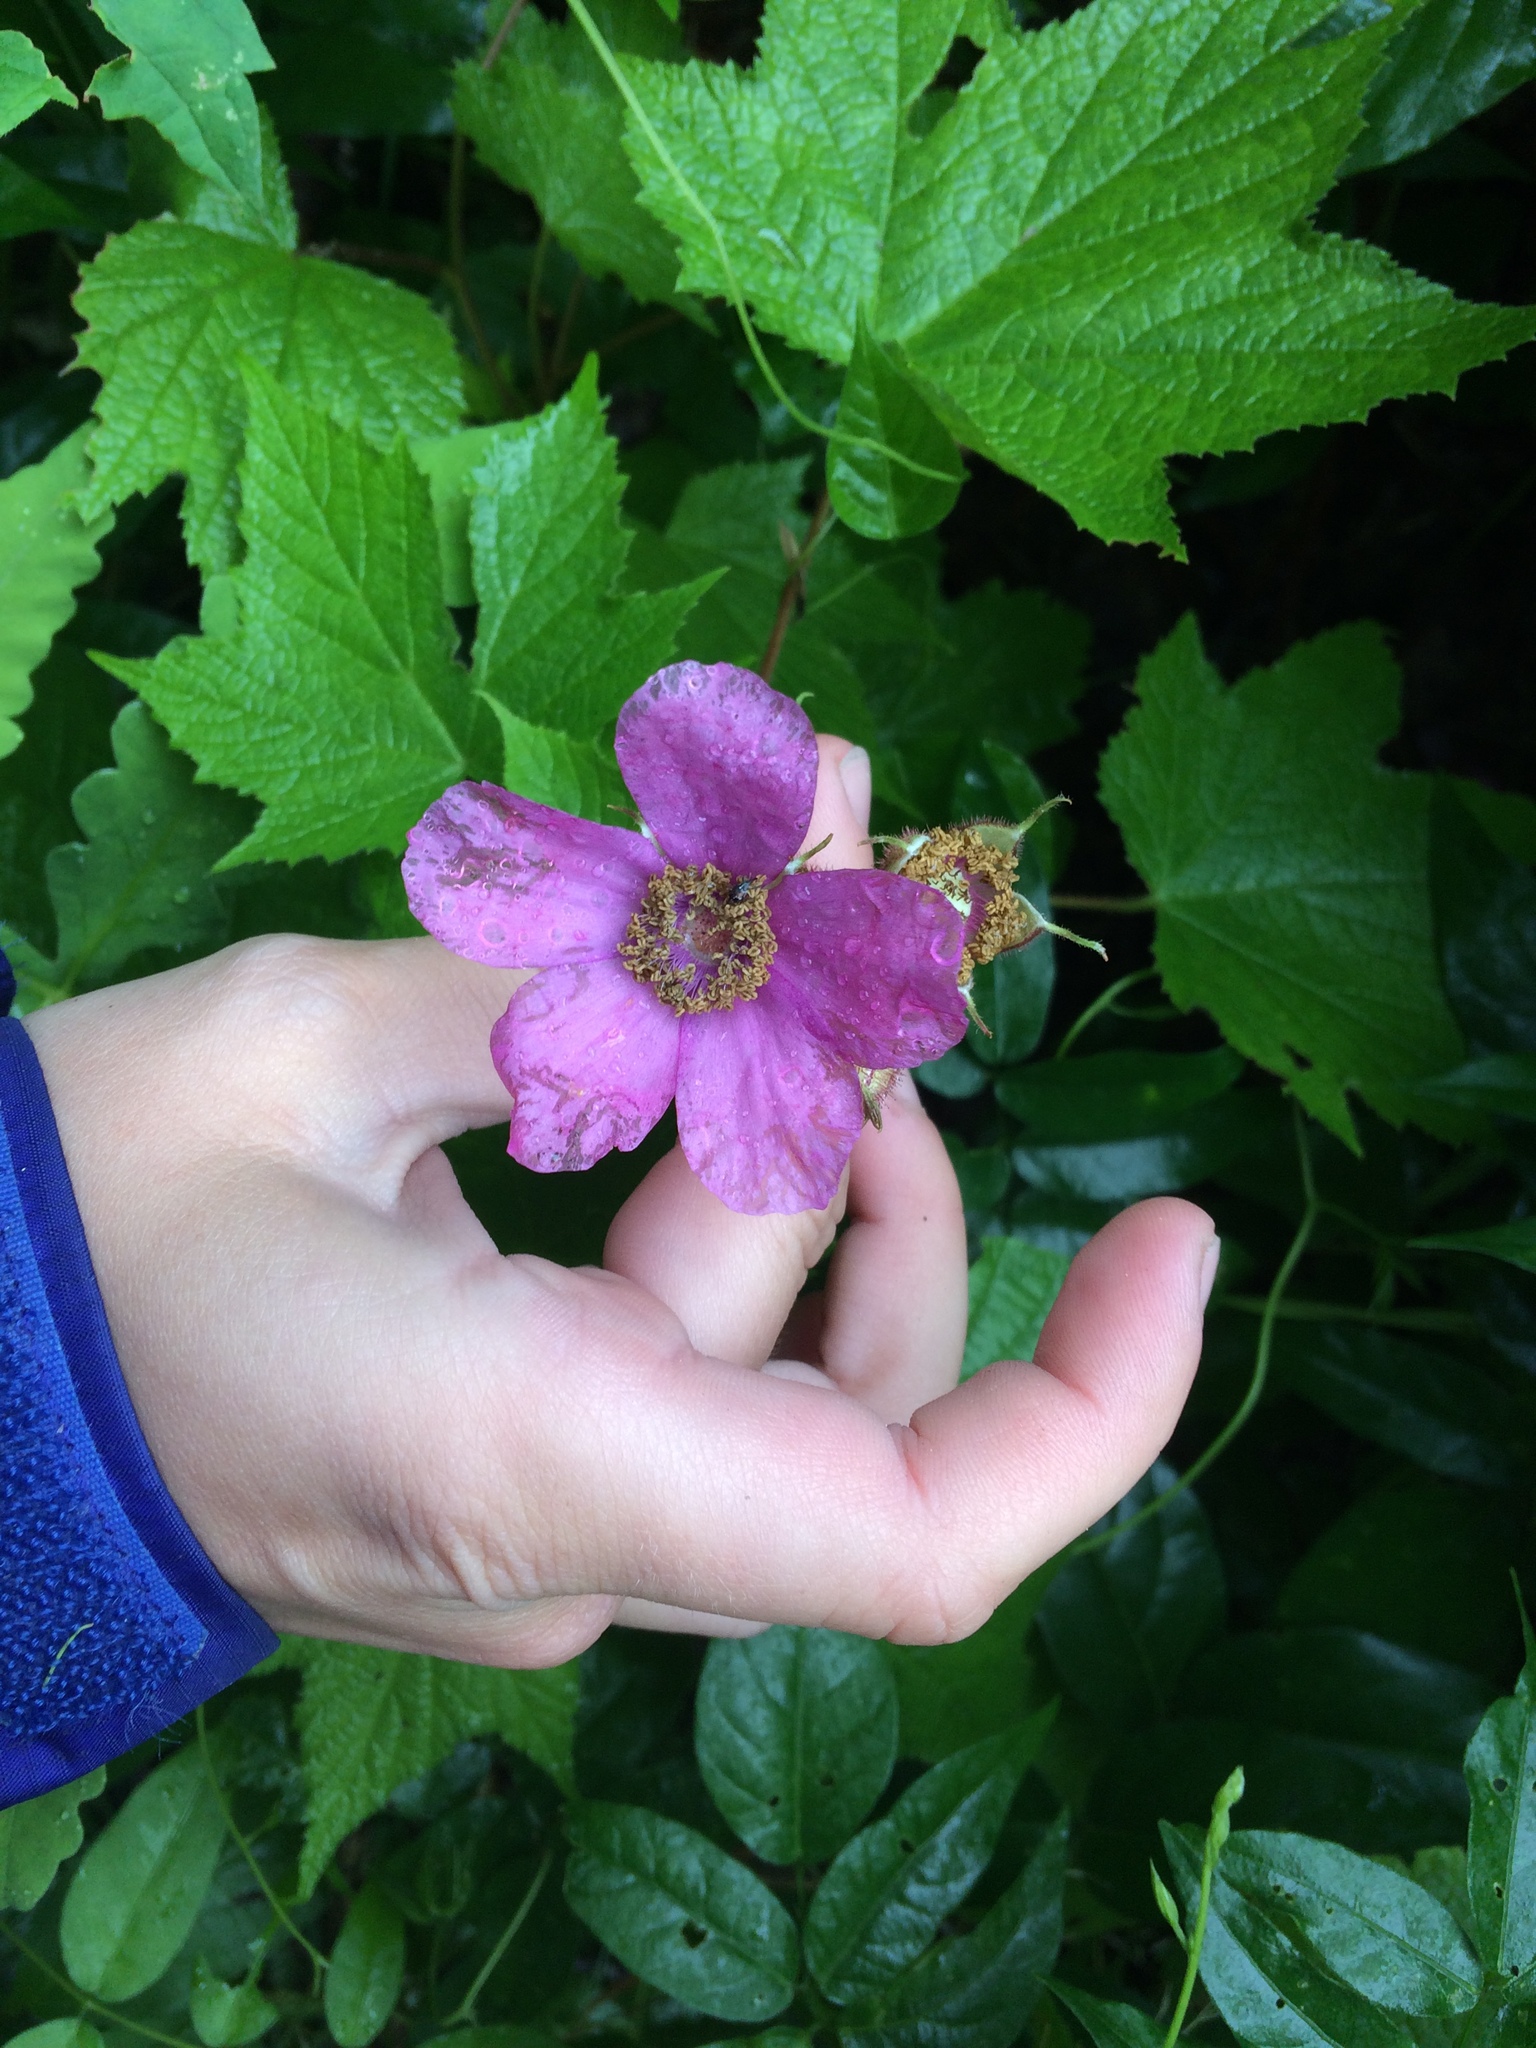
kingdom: Plantae
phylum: Tracheophyta
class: Magnoliopsida
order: Rosales
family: Rosaceae
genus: Rubus
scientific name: Rubus odoratus
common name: Purple-flowered raspberry
